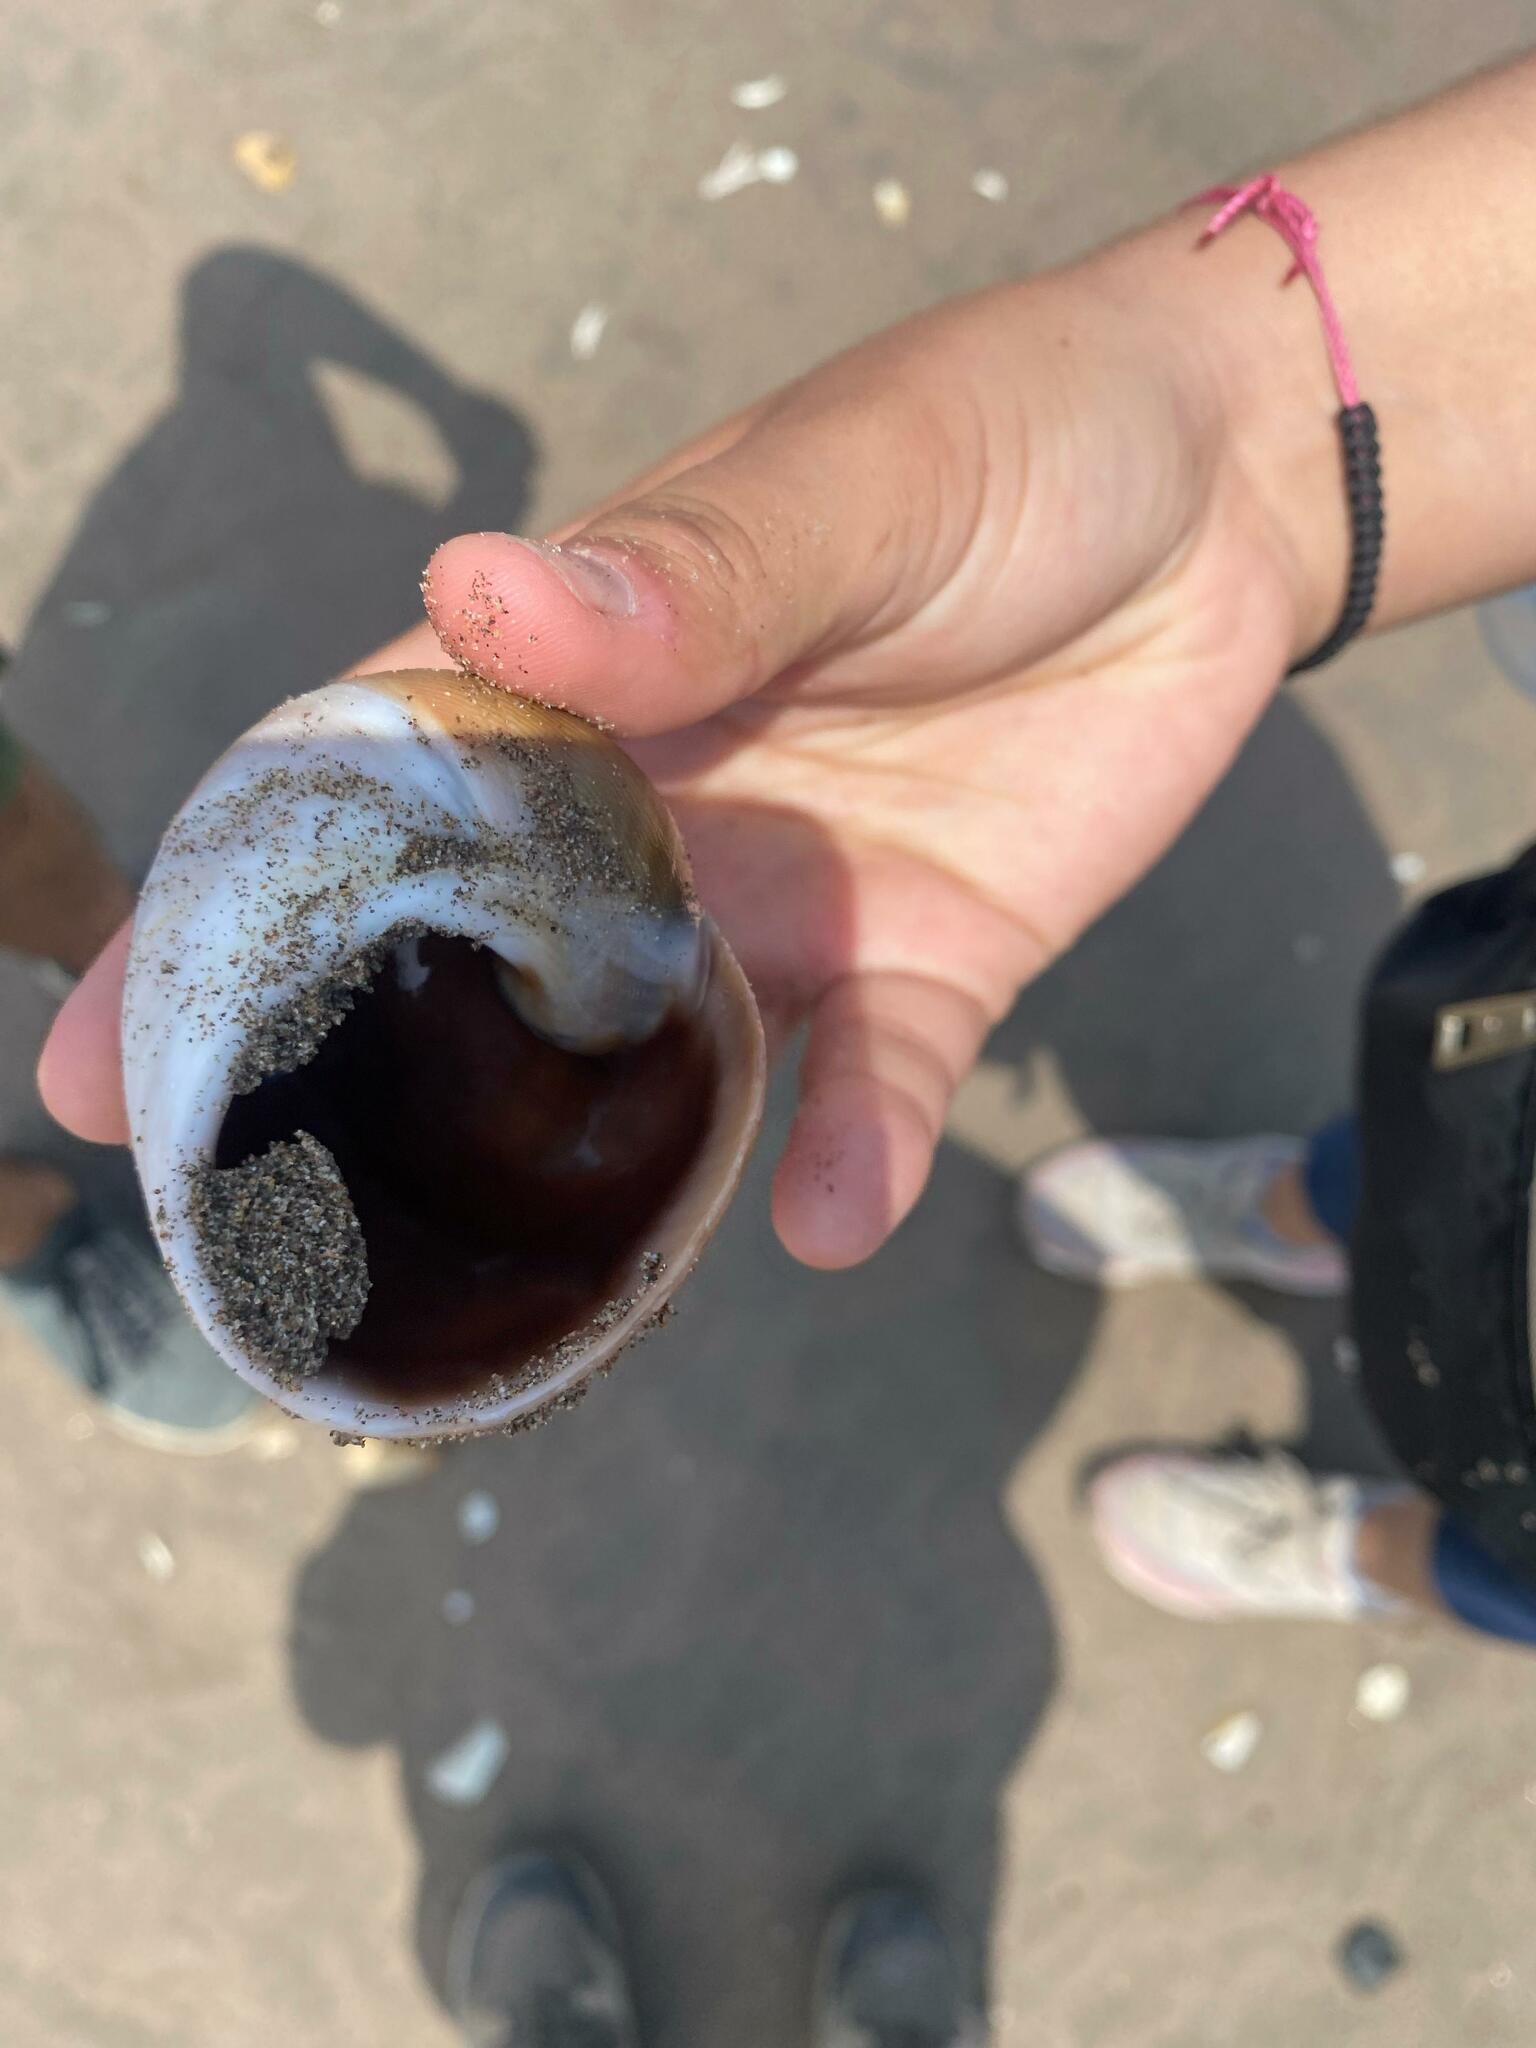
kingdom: Animalia
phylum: Mollusca
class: Gastropoda
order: Littorinimorpha
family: Naticidae
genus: Sinum
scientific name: Sinum cymba
